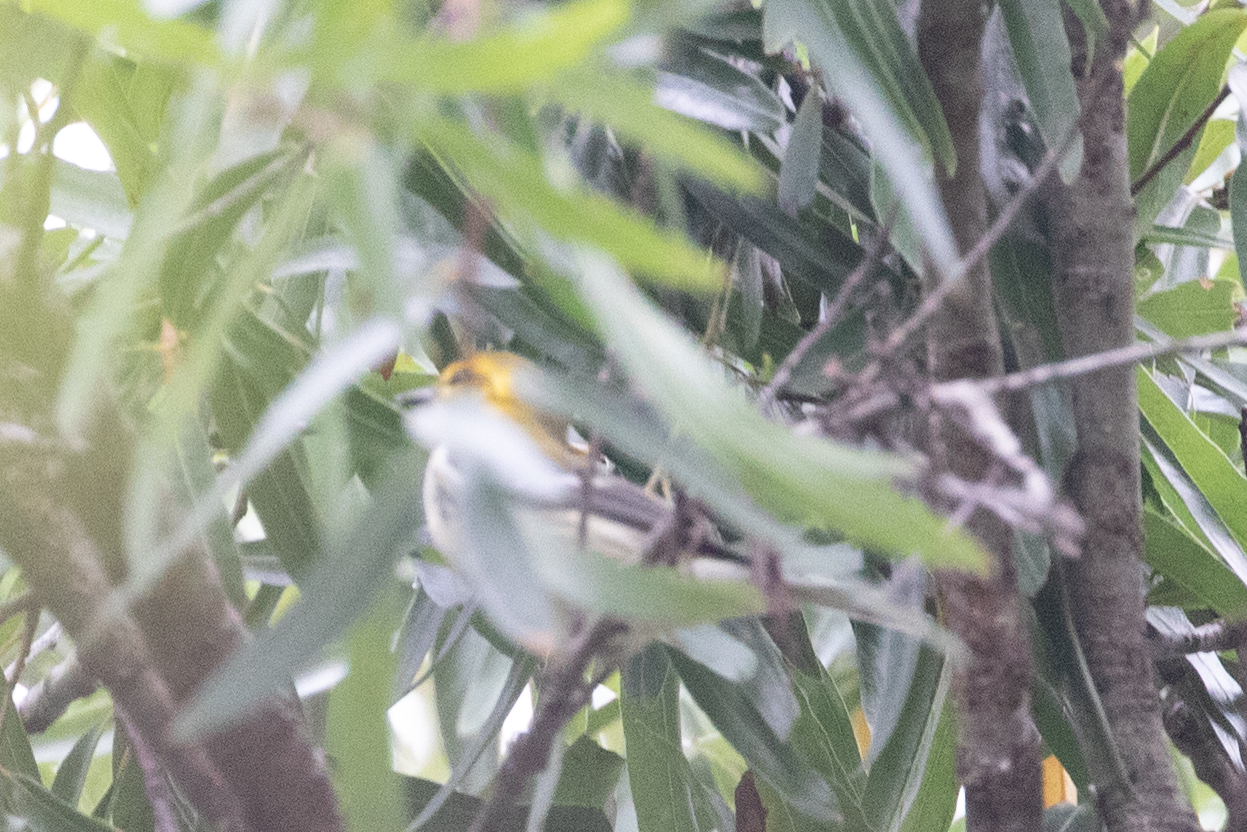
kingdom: Animalia
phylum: Chordata
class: Aves
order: Passeriformes
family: Parulidae
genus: Setophaga
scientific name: Setophaga virens
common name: Black-throated green warbler
